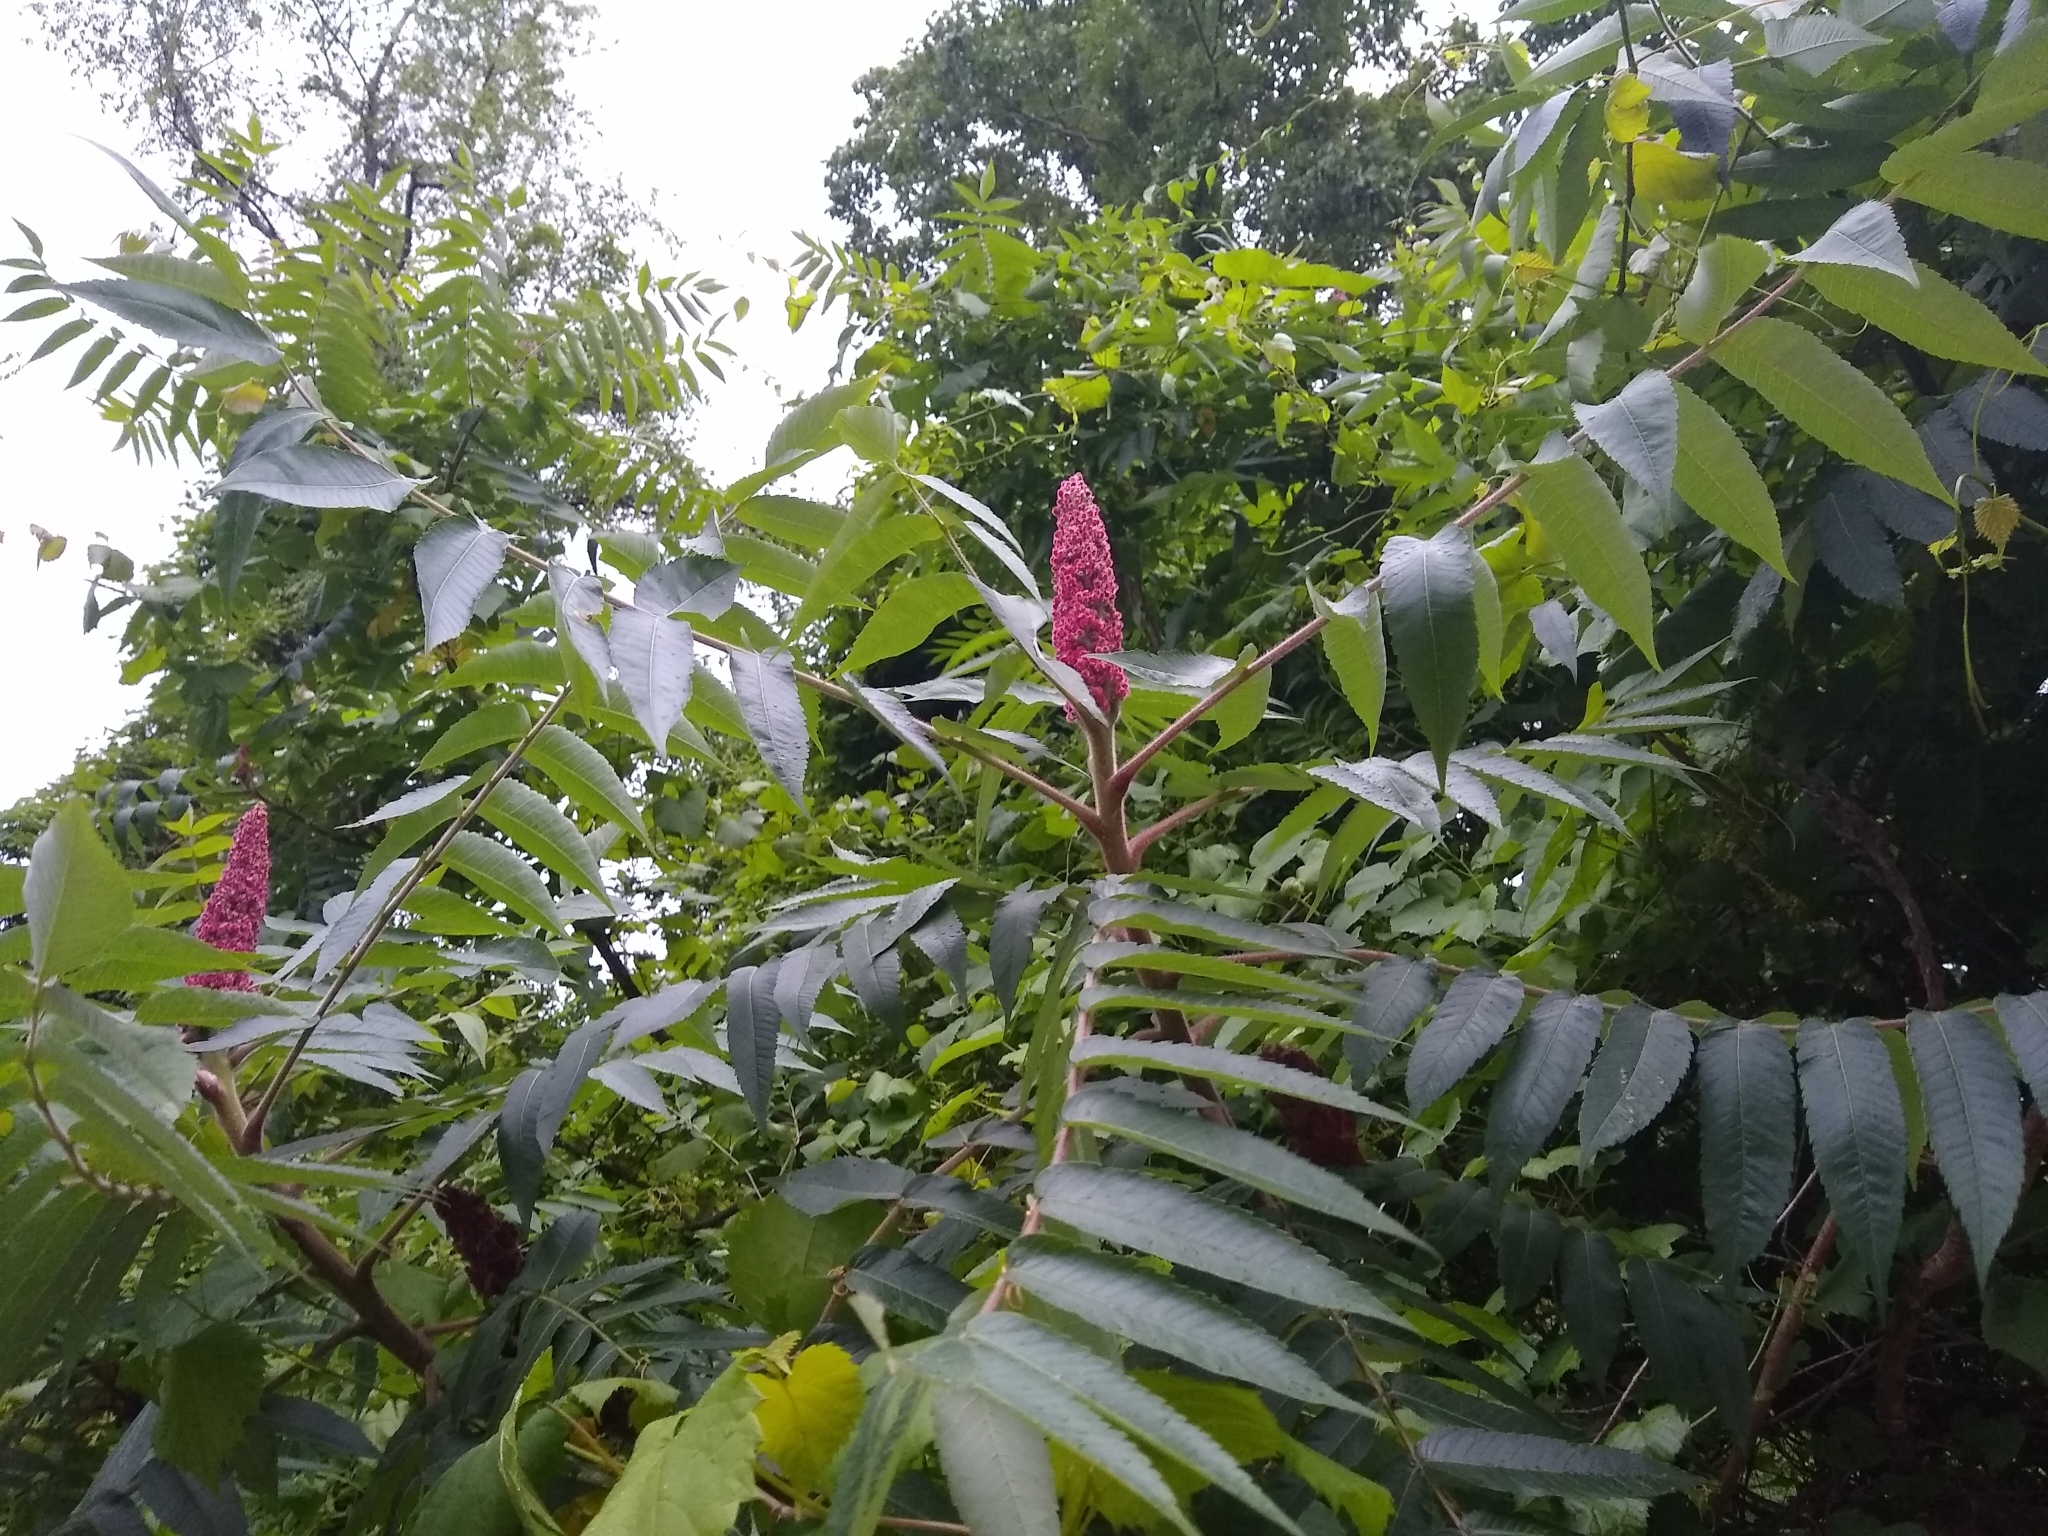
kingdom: Plantae
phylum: Tracheophyta
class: Magnoliopsida
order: Sapindales
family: Anacardiaceae
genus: Rhus
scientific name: Rhus typhina
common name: Staghorn sumac
